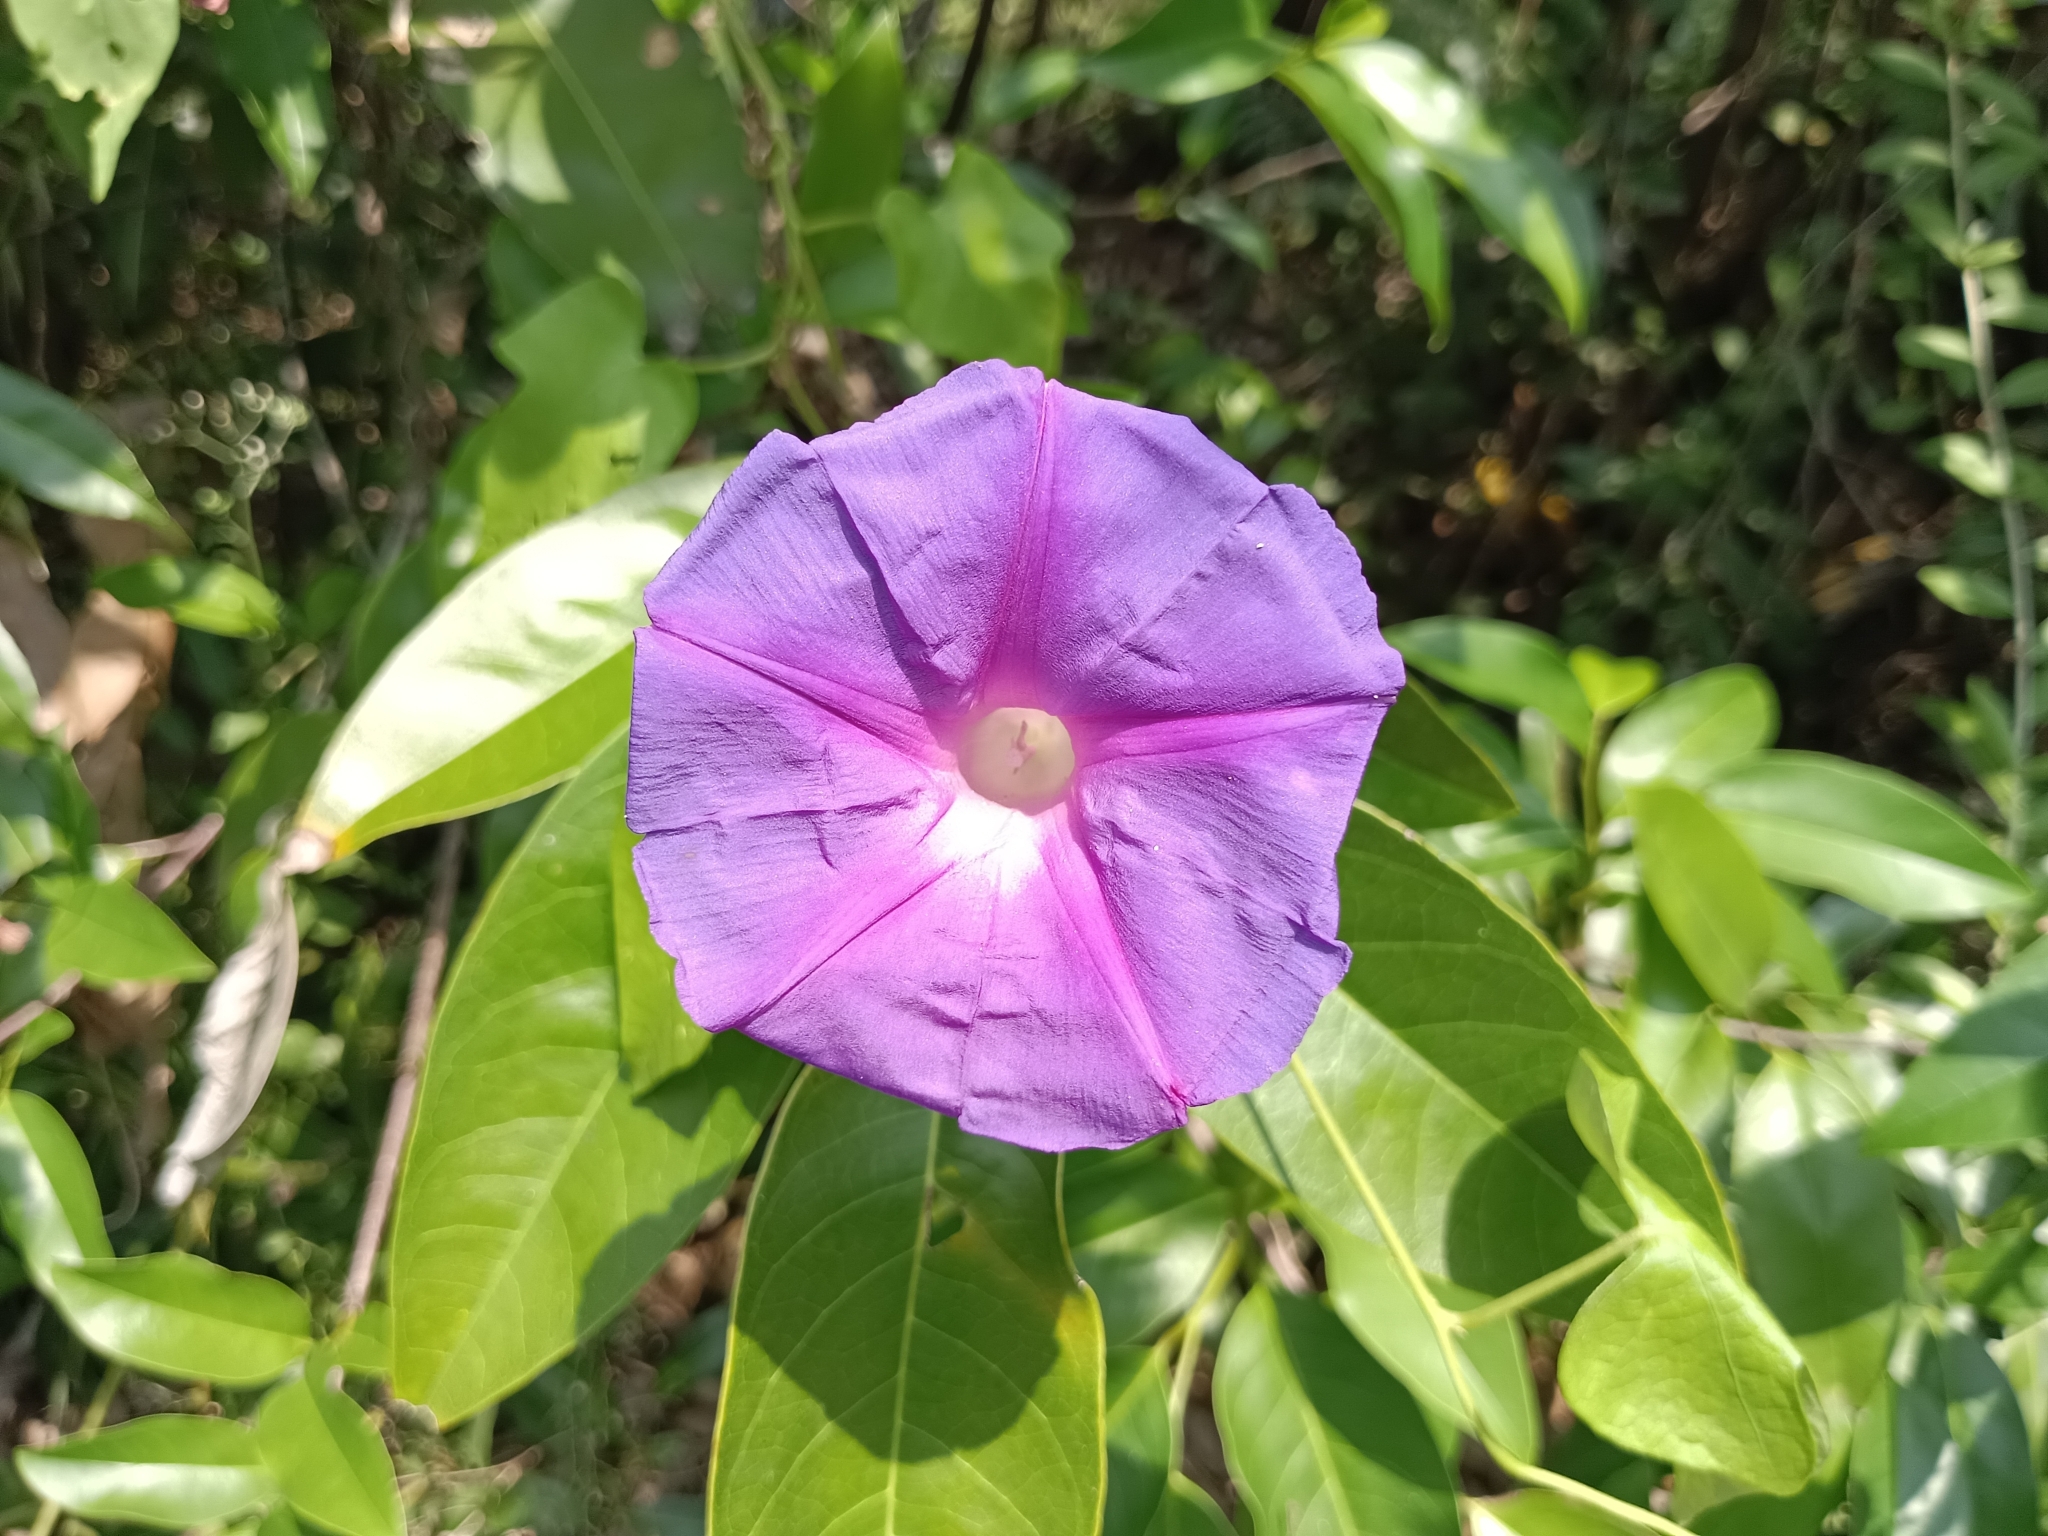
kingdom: Plantae
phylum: Tracheophyta
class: Magnoliopsida
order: Solanales
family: Convolvulaceae
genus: Ipomoea
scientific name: Ipomoea indica
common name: Blue dawnflower
